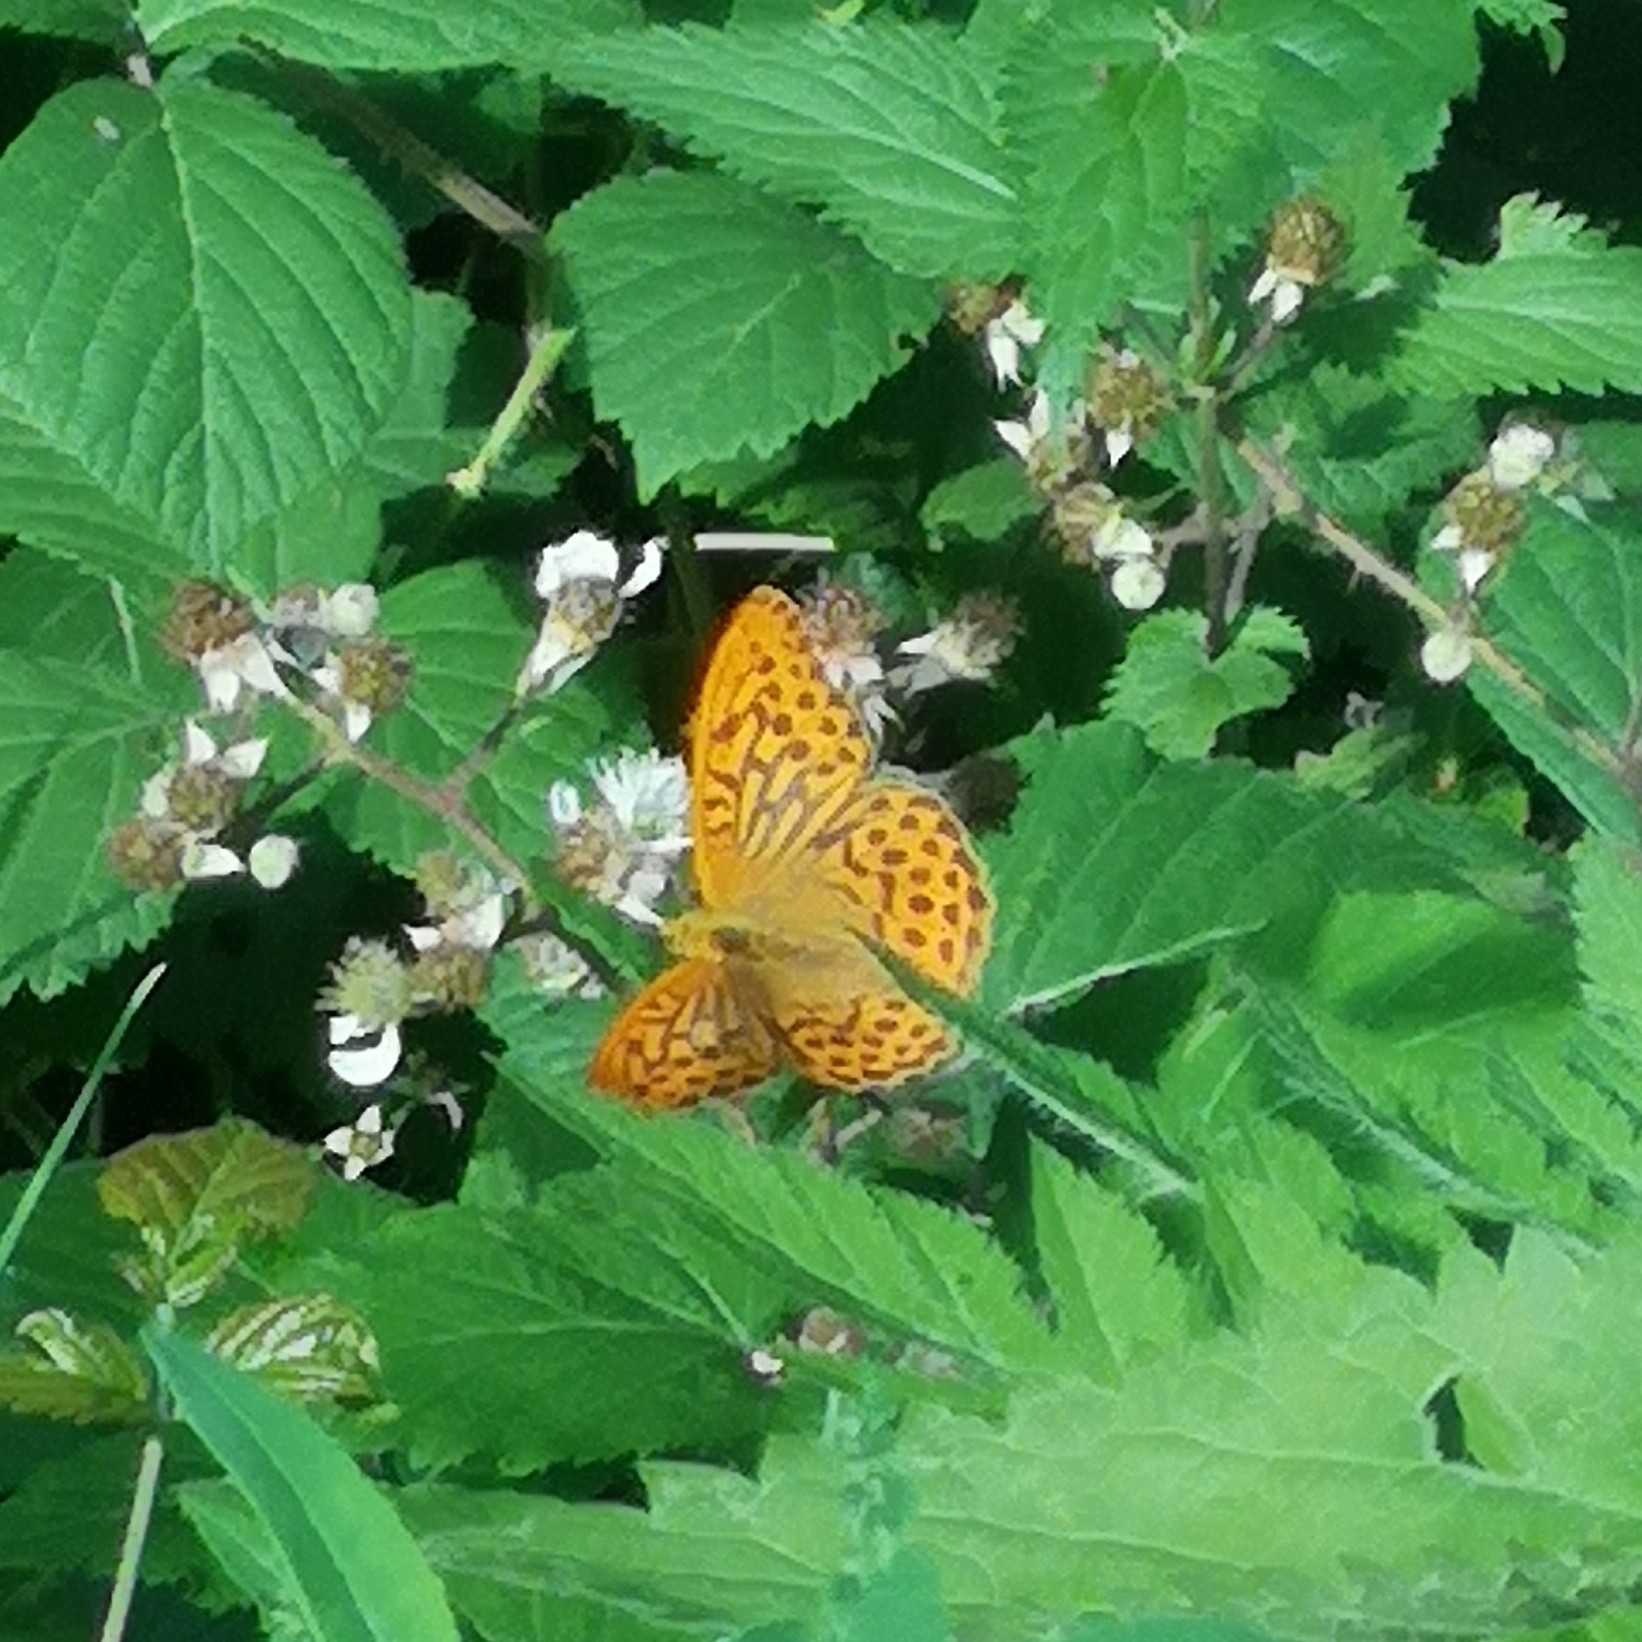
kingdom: Animalia
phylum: Arthropoda
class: Insecta
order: Lepidoptera
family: Nymphalidae
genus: Argynnis
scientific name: Argynnis paphia
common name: Silver-washed fritillary
